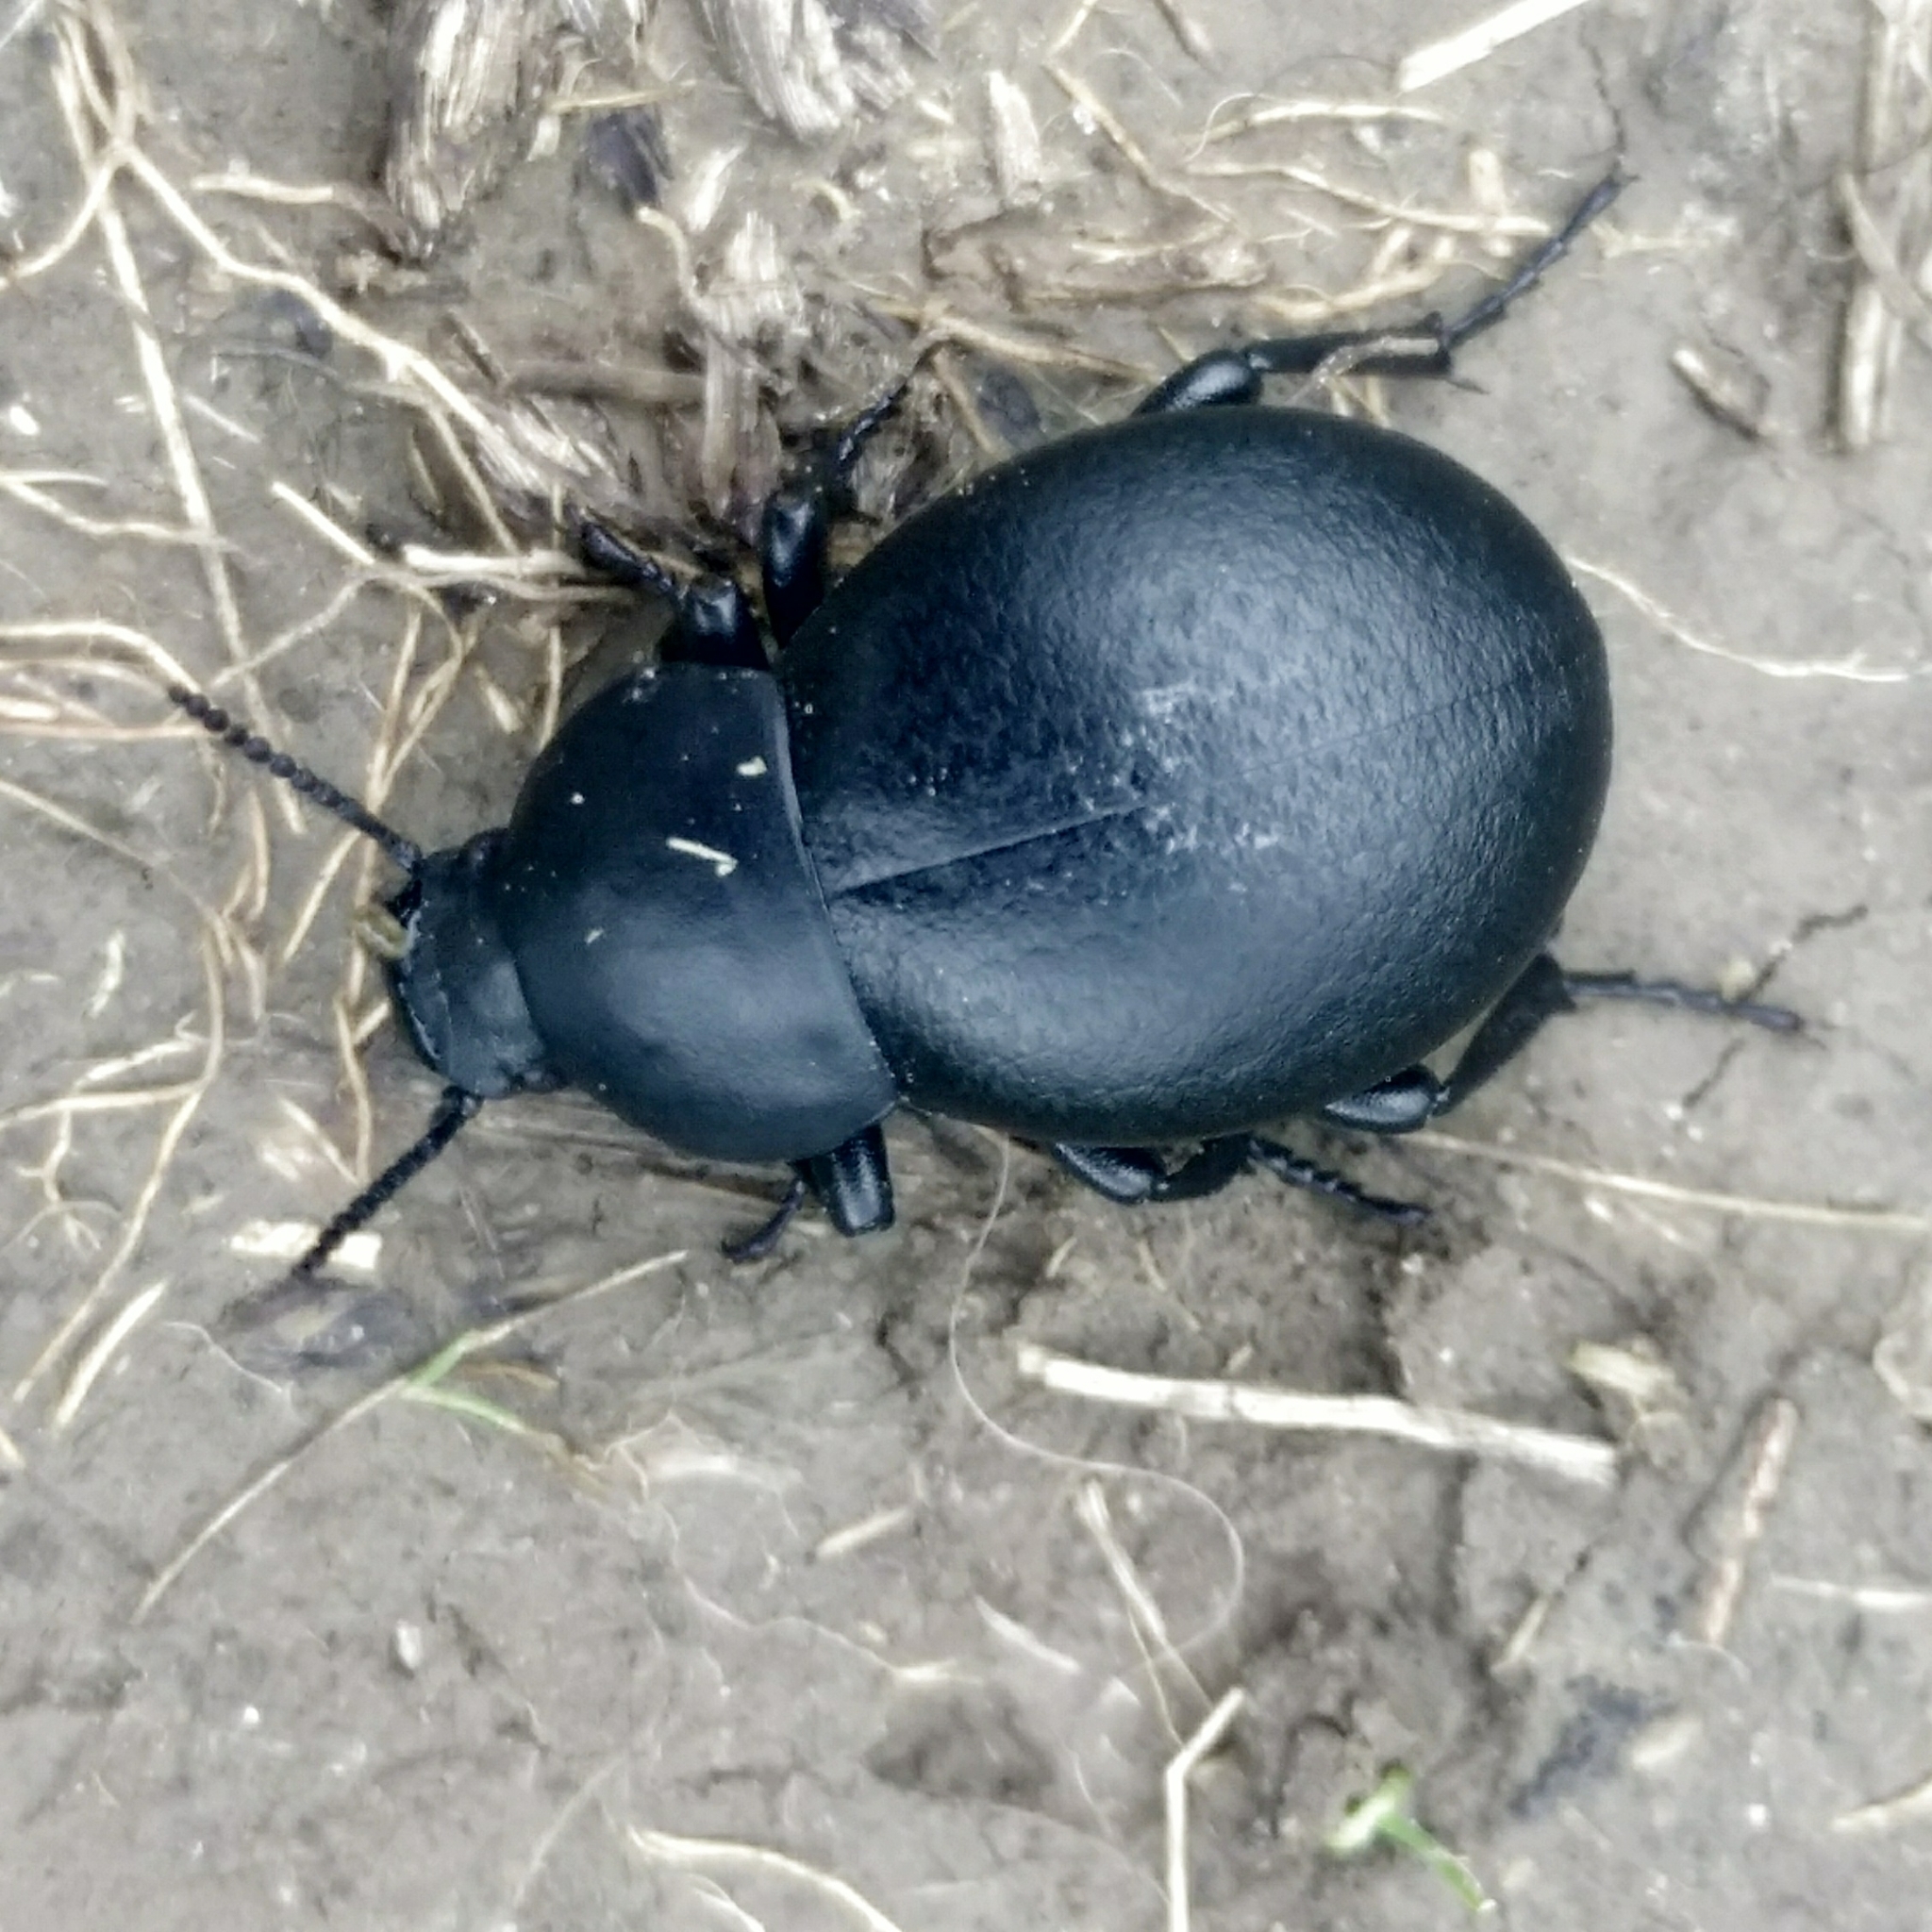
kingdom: Animalia
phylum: Arthropoda
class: Insecta
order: Coleoptera
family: Tenebrionidae
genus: Gnaptor
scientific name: Gnaptor spinimanus
